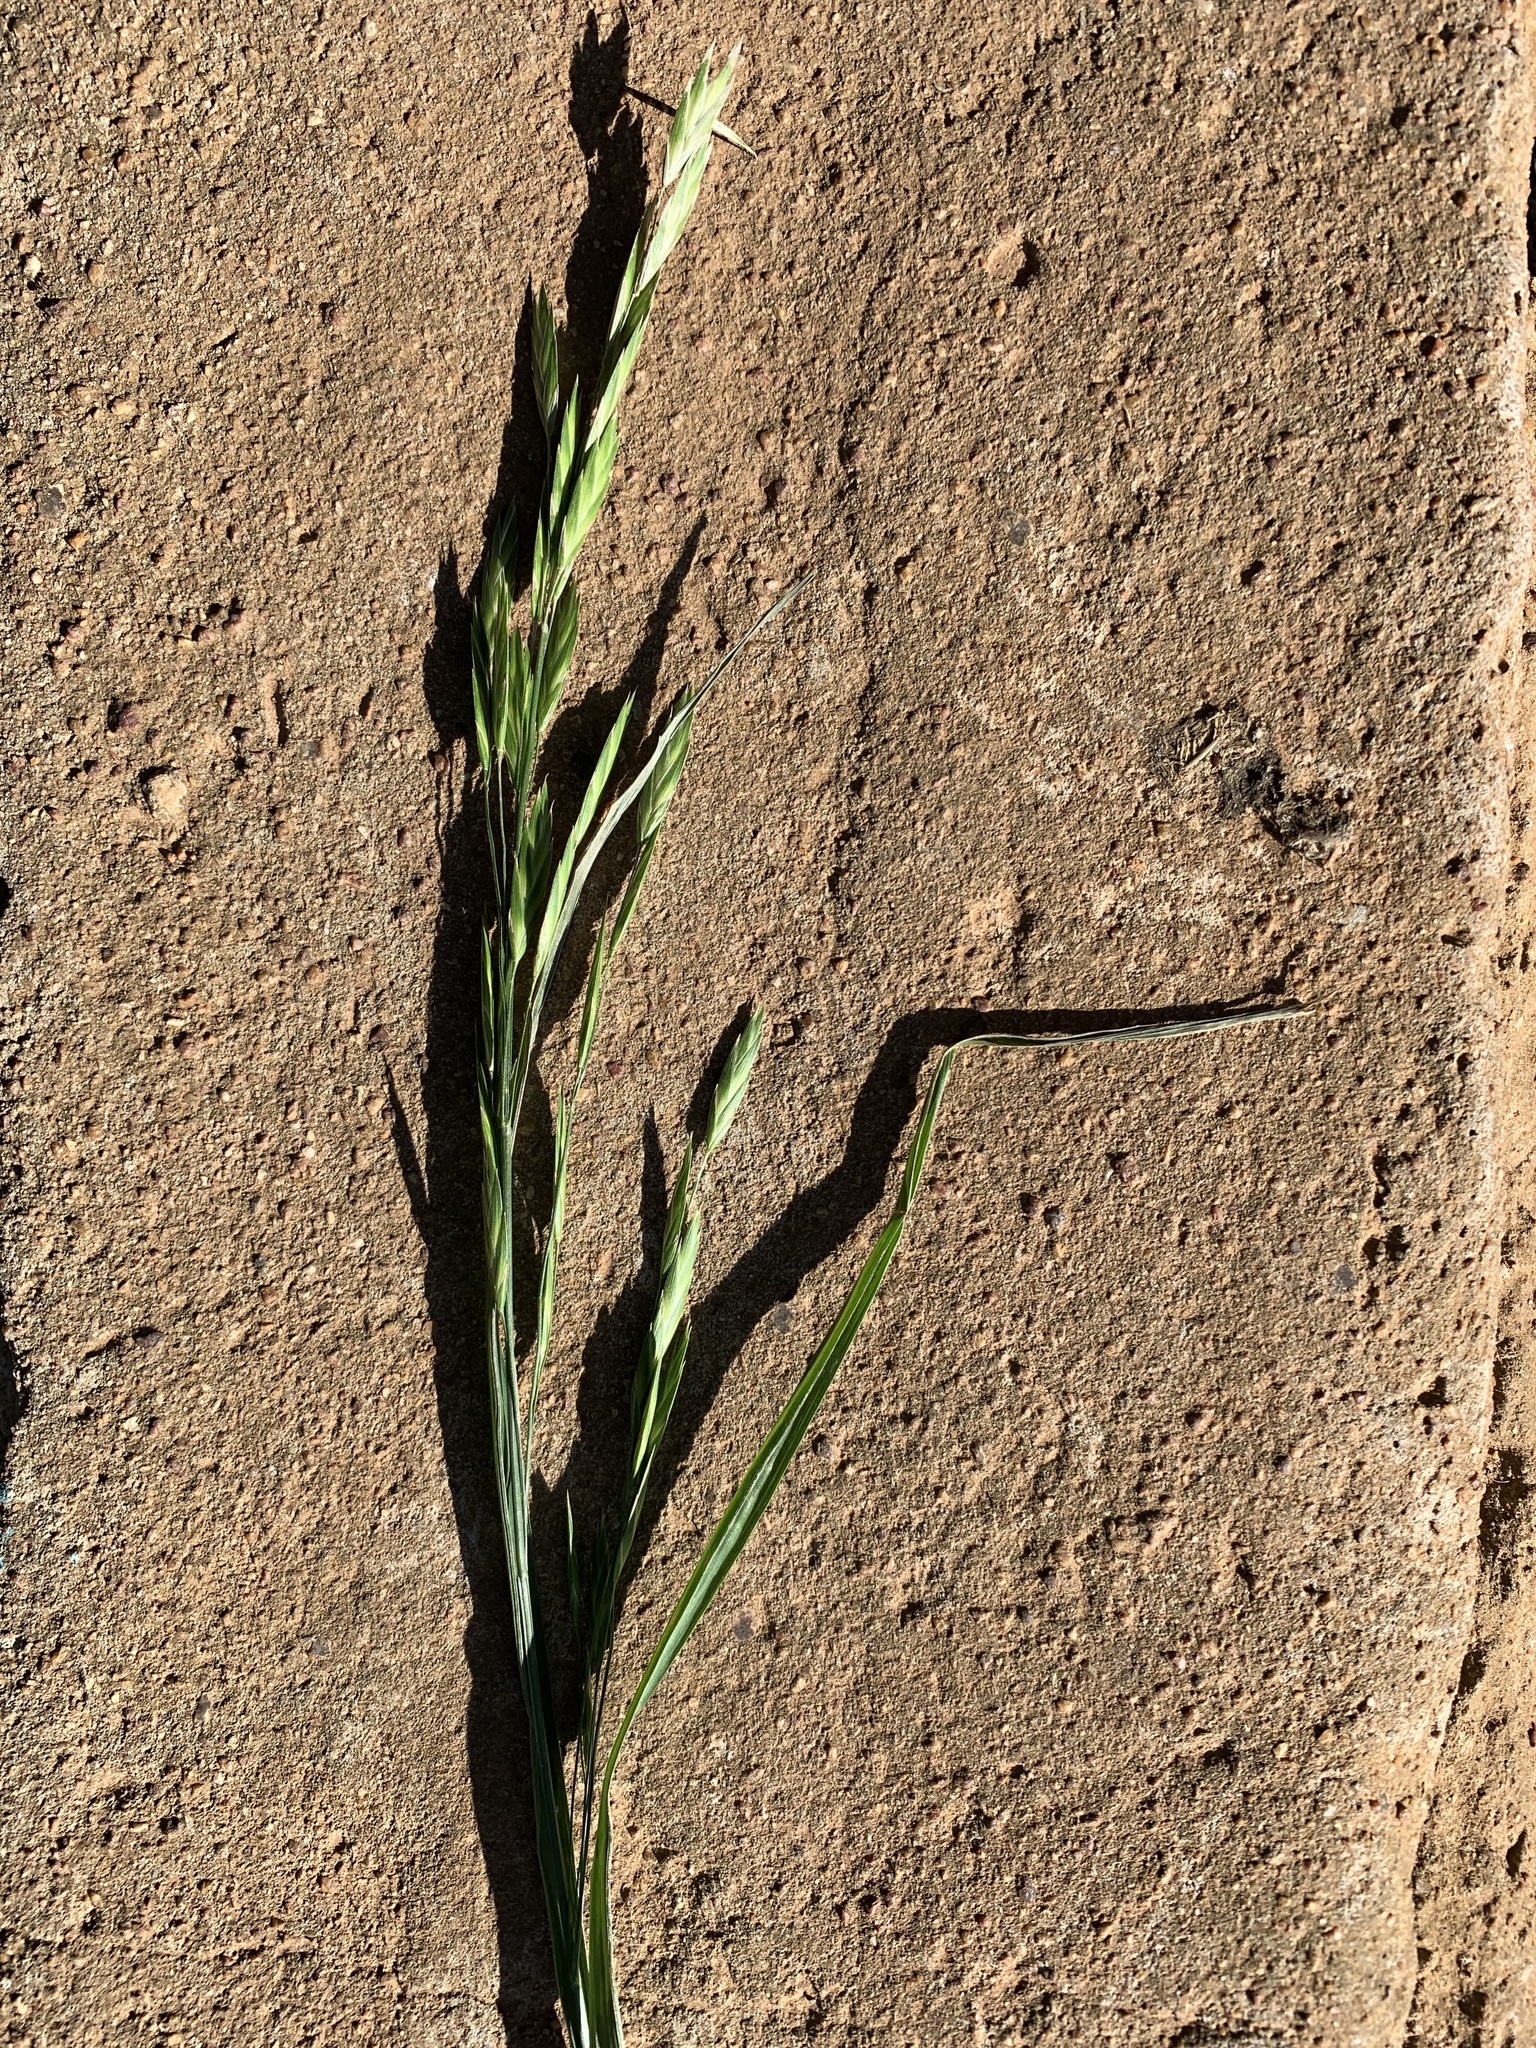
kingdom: Plantae
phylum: Tracheophyta
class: Liliopsida
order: Poales
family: Poaceae
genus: Bromus
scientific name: Bromus catharticus
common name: Rescuegrass
